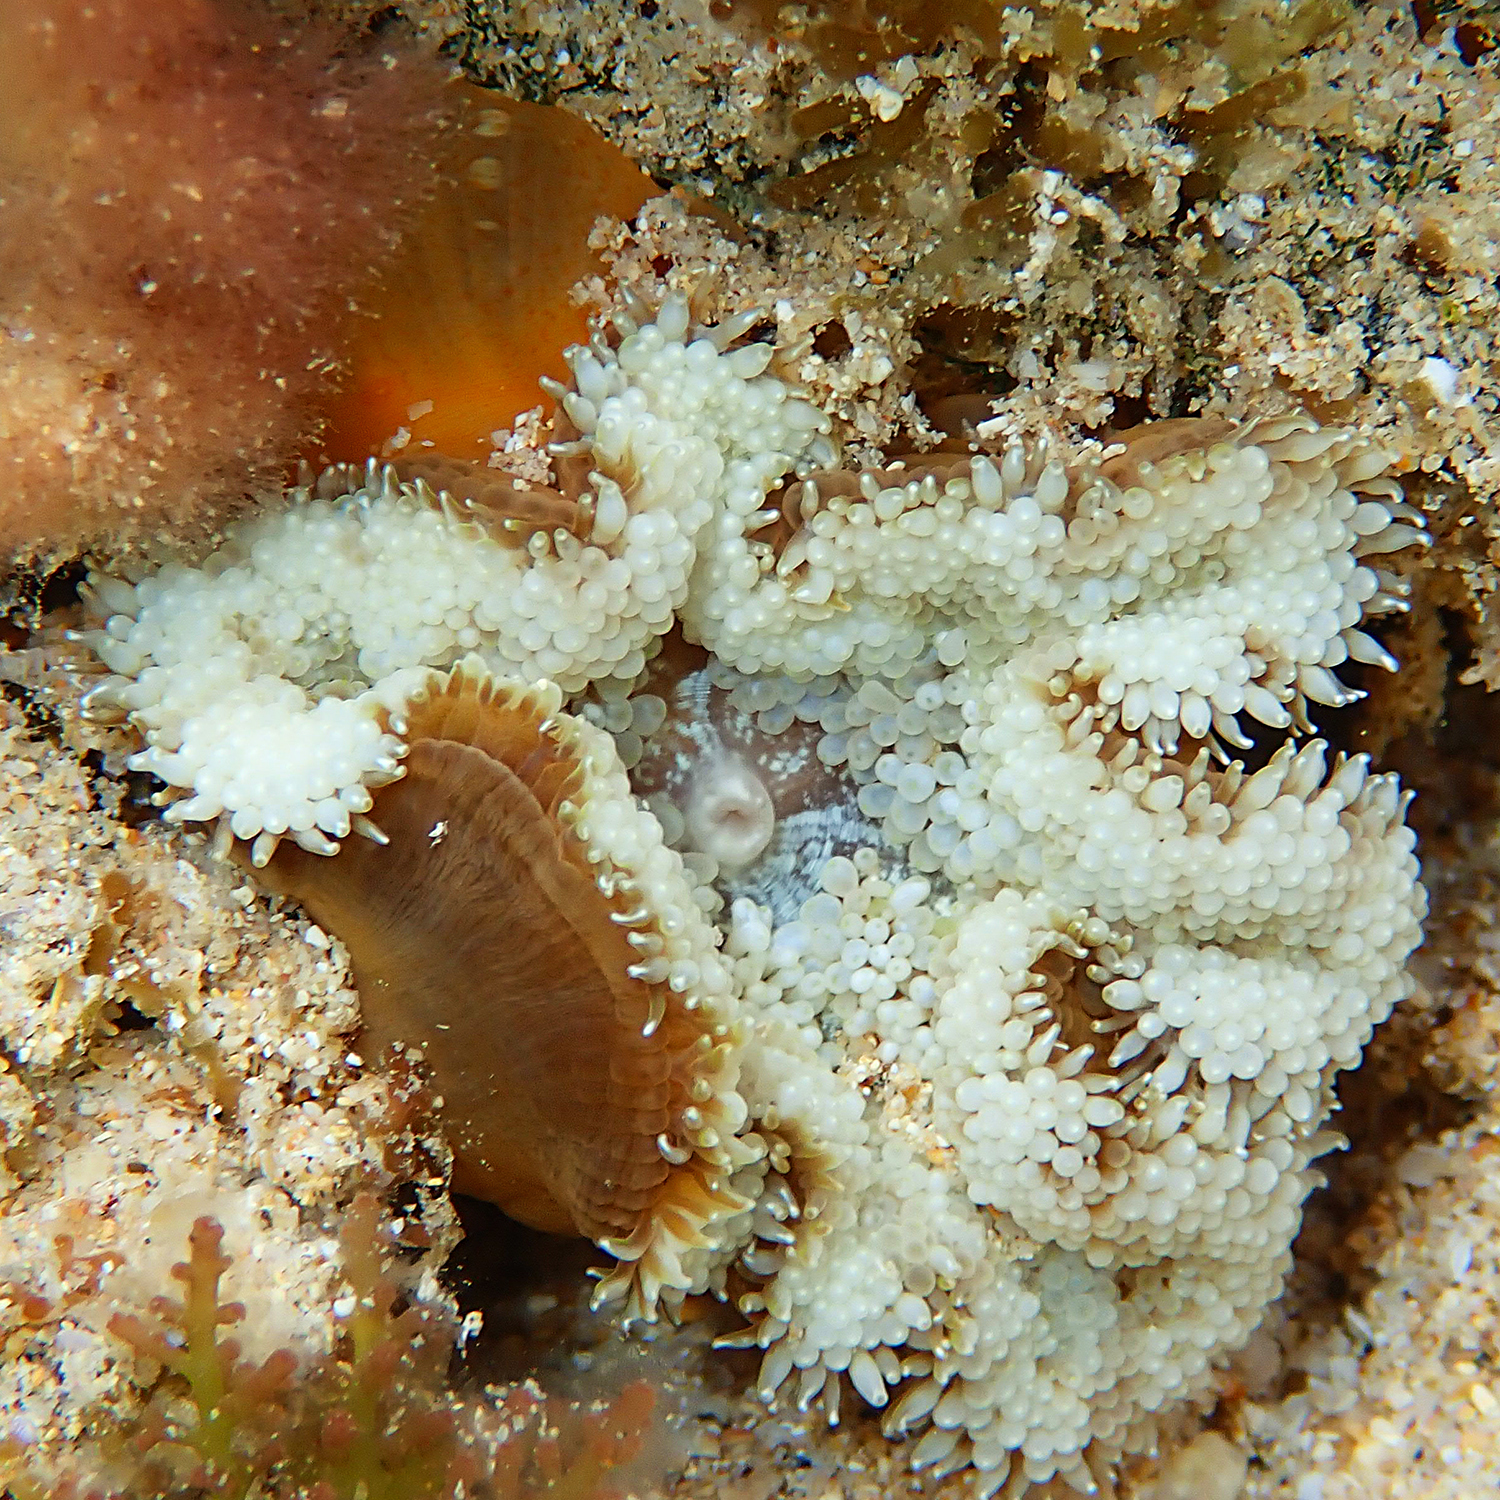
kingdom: Animalia
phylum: Cnidaria
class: Anthozoa
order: Actiniaria
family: Stichodactylidae
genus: Stichodactyla
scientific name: Stichodactyla tapetum
